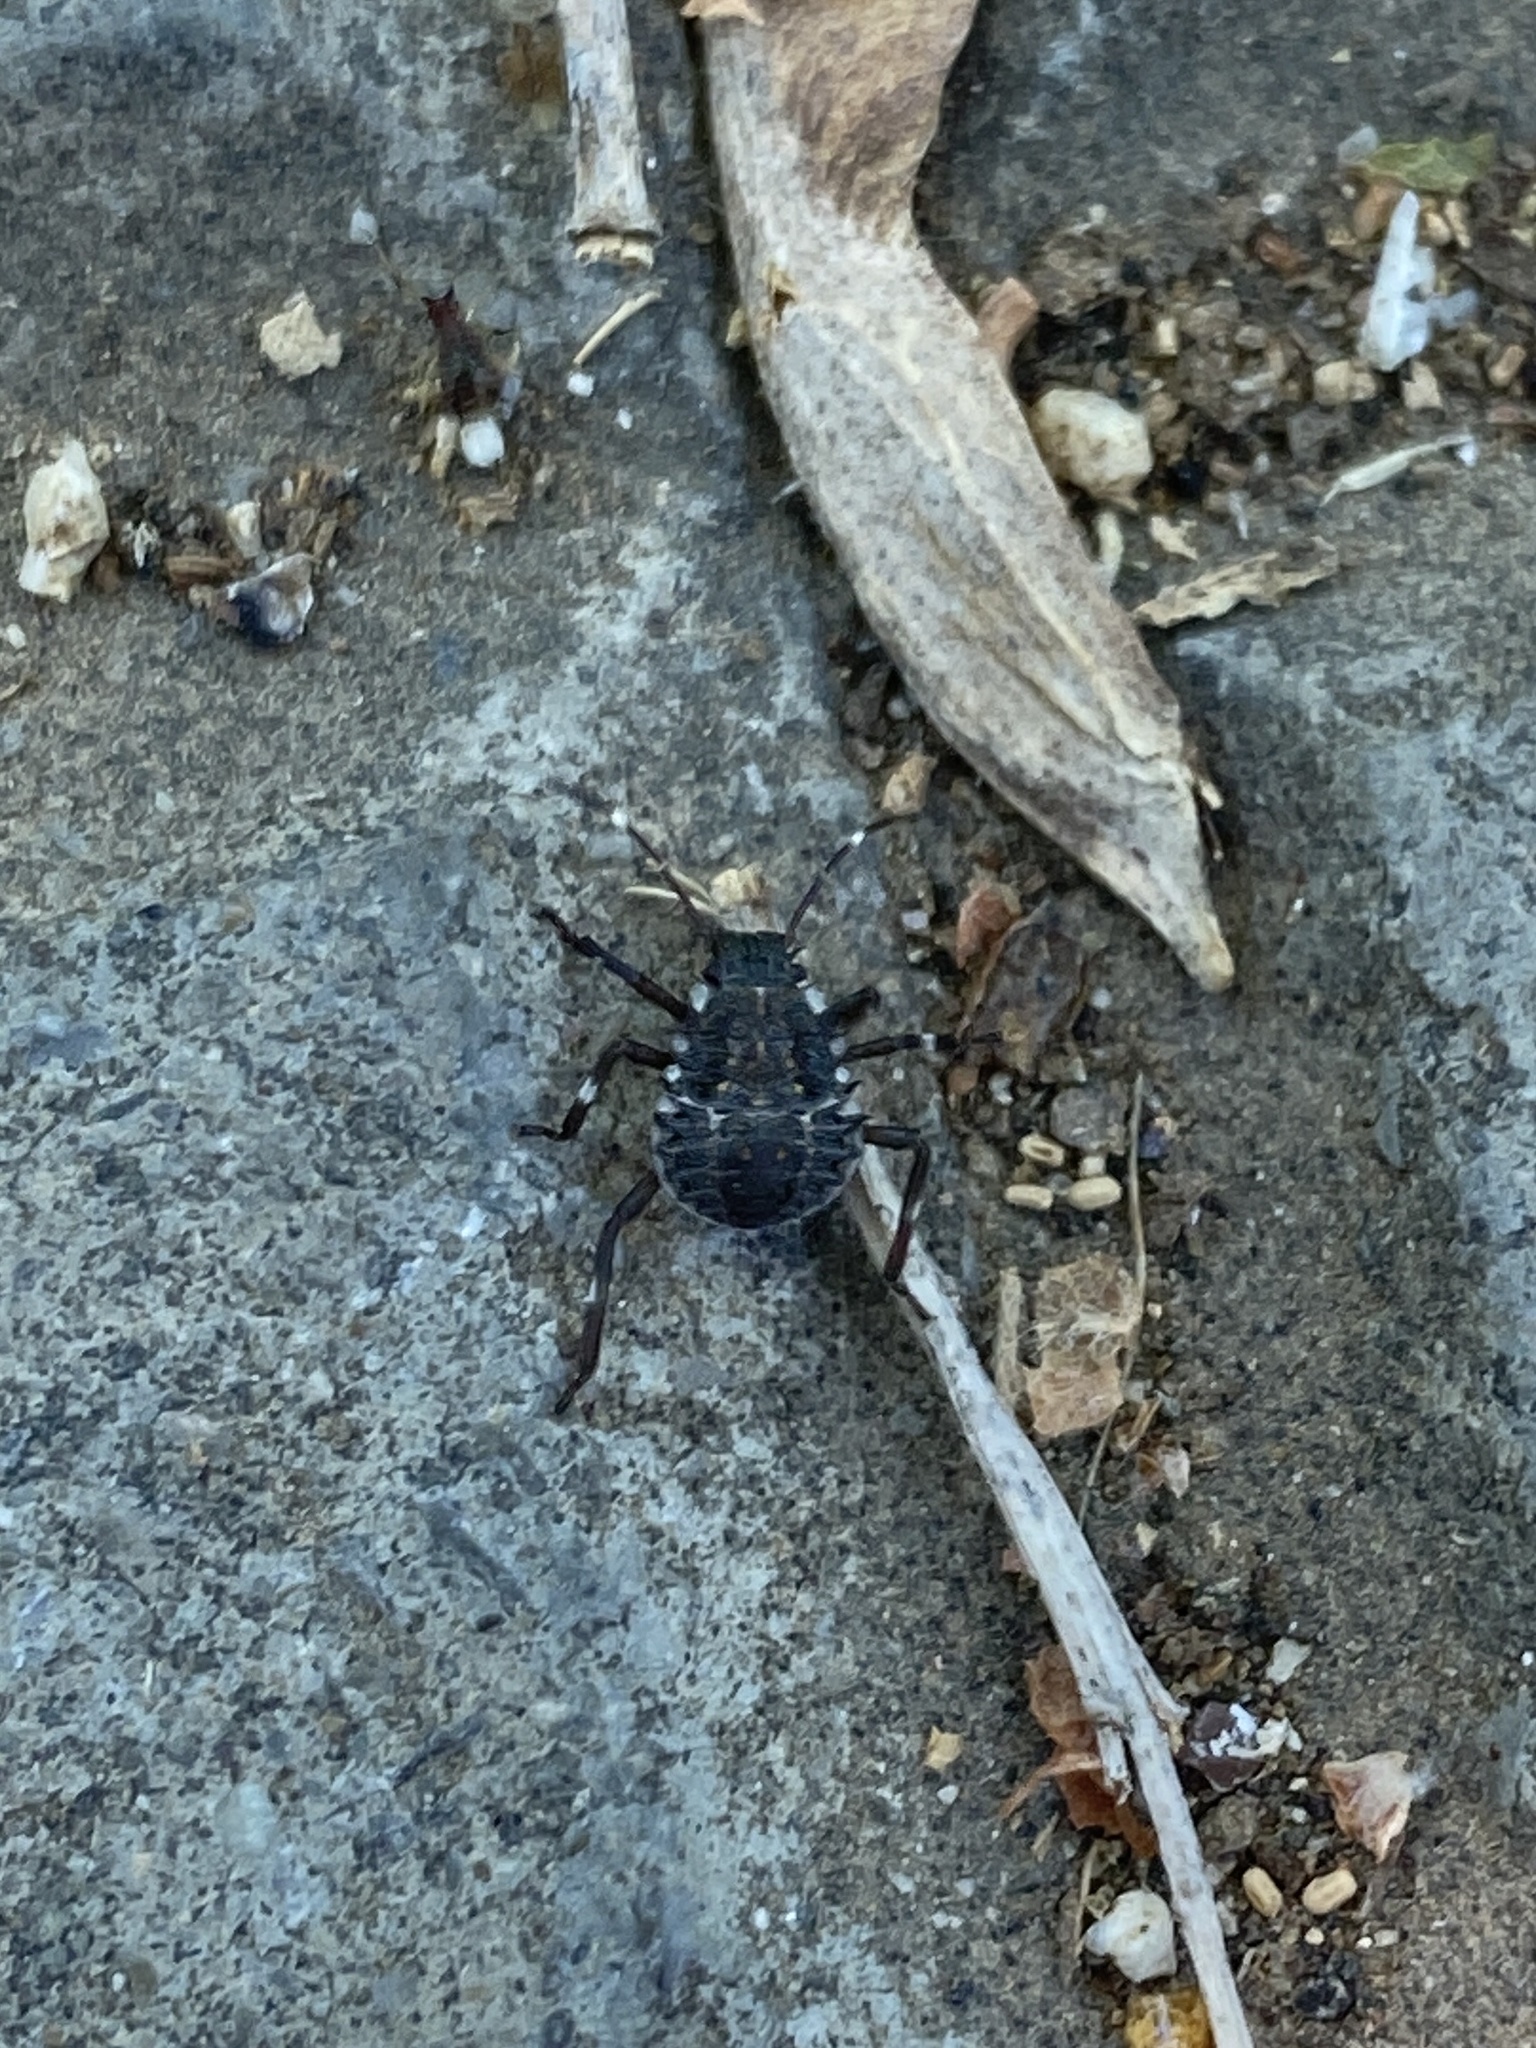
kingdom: Animalia
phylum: Arthropoda
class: Insecta
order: Hemiptera
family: Pentatomidae
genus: Halyomorpha
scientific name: Halyomorpha halys
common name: Brown marmorated stink bug
